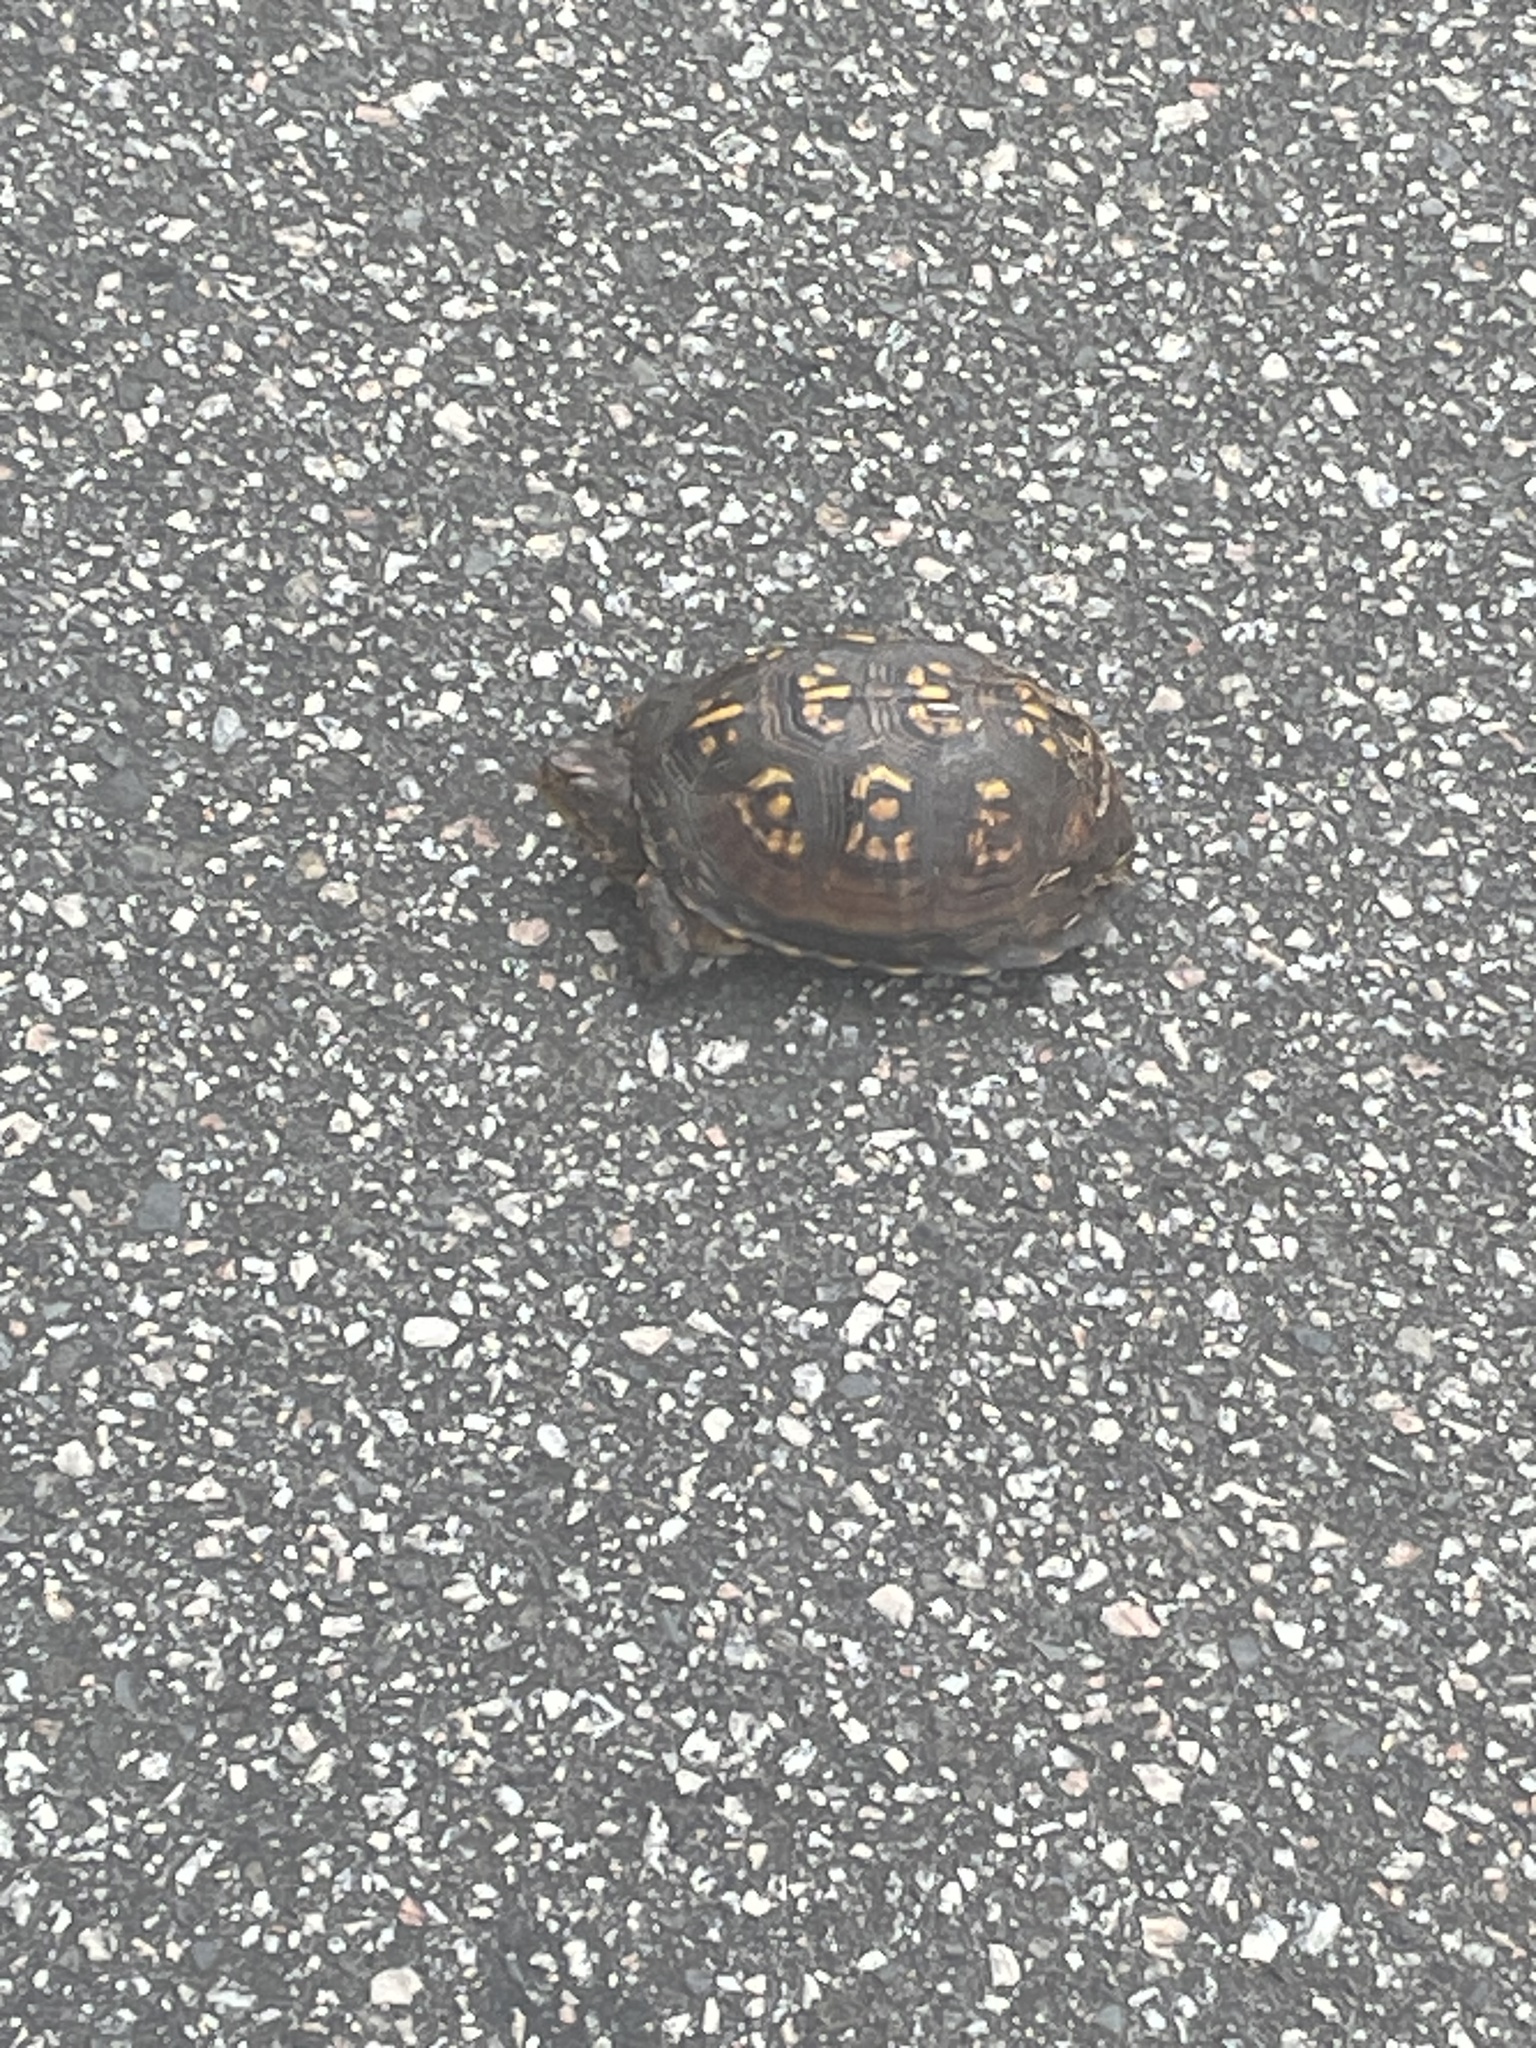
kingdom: Animalia
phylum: Chordata
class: Testudines
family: Emydidae
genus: Terrapene
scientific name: Terrapene carolina
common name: Common box turtle
